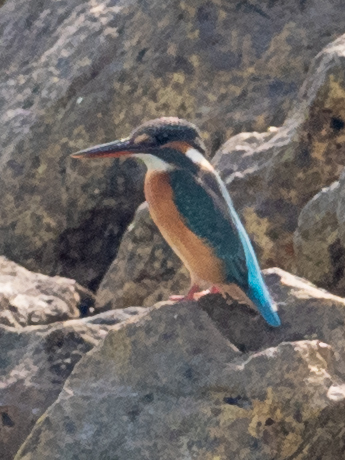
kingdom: Animalia
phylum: Chordata
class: Aves
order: Coraciiformes
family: Alcedinidae
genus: Alcedo
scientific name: Alcedo atthis
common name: Common kingfisher
